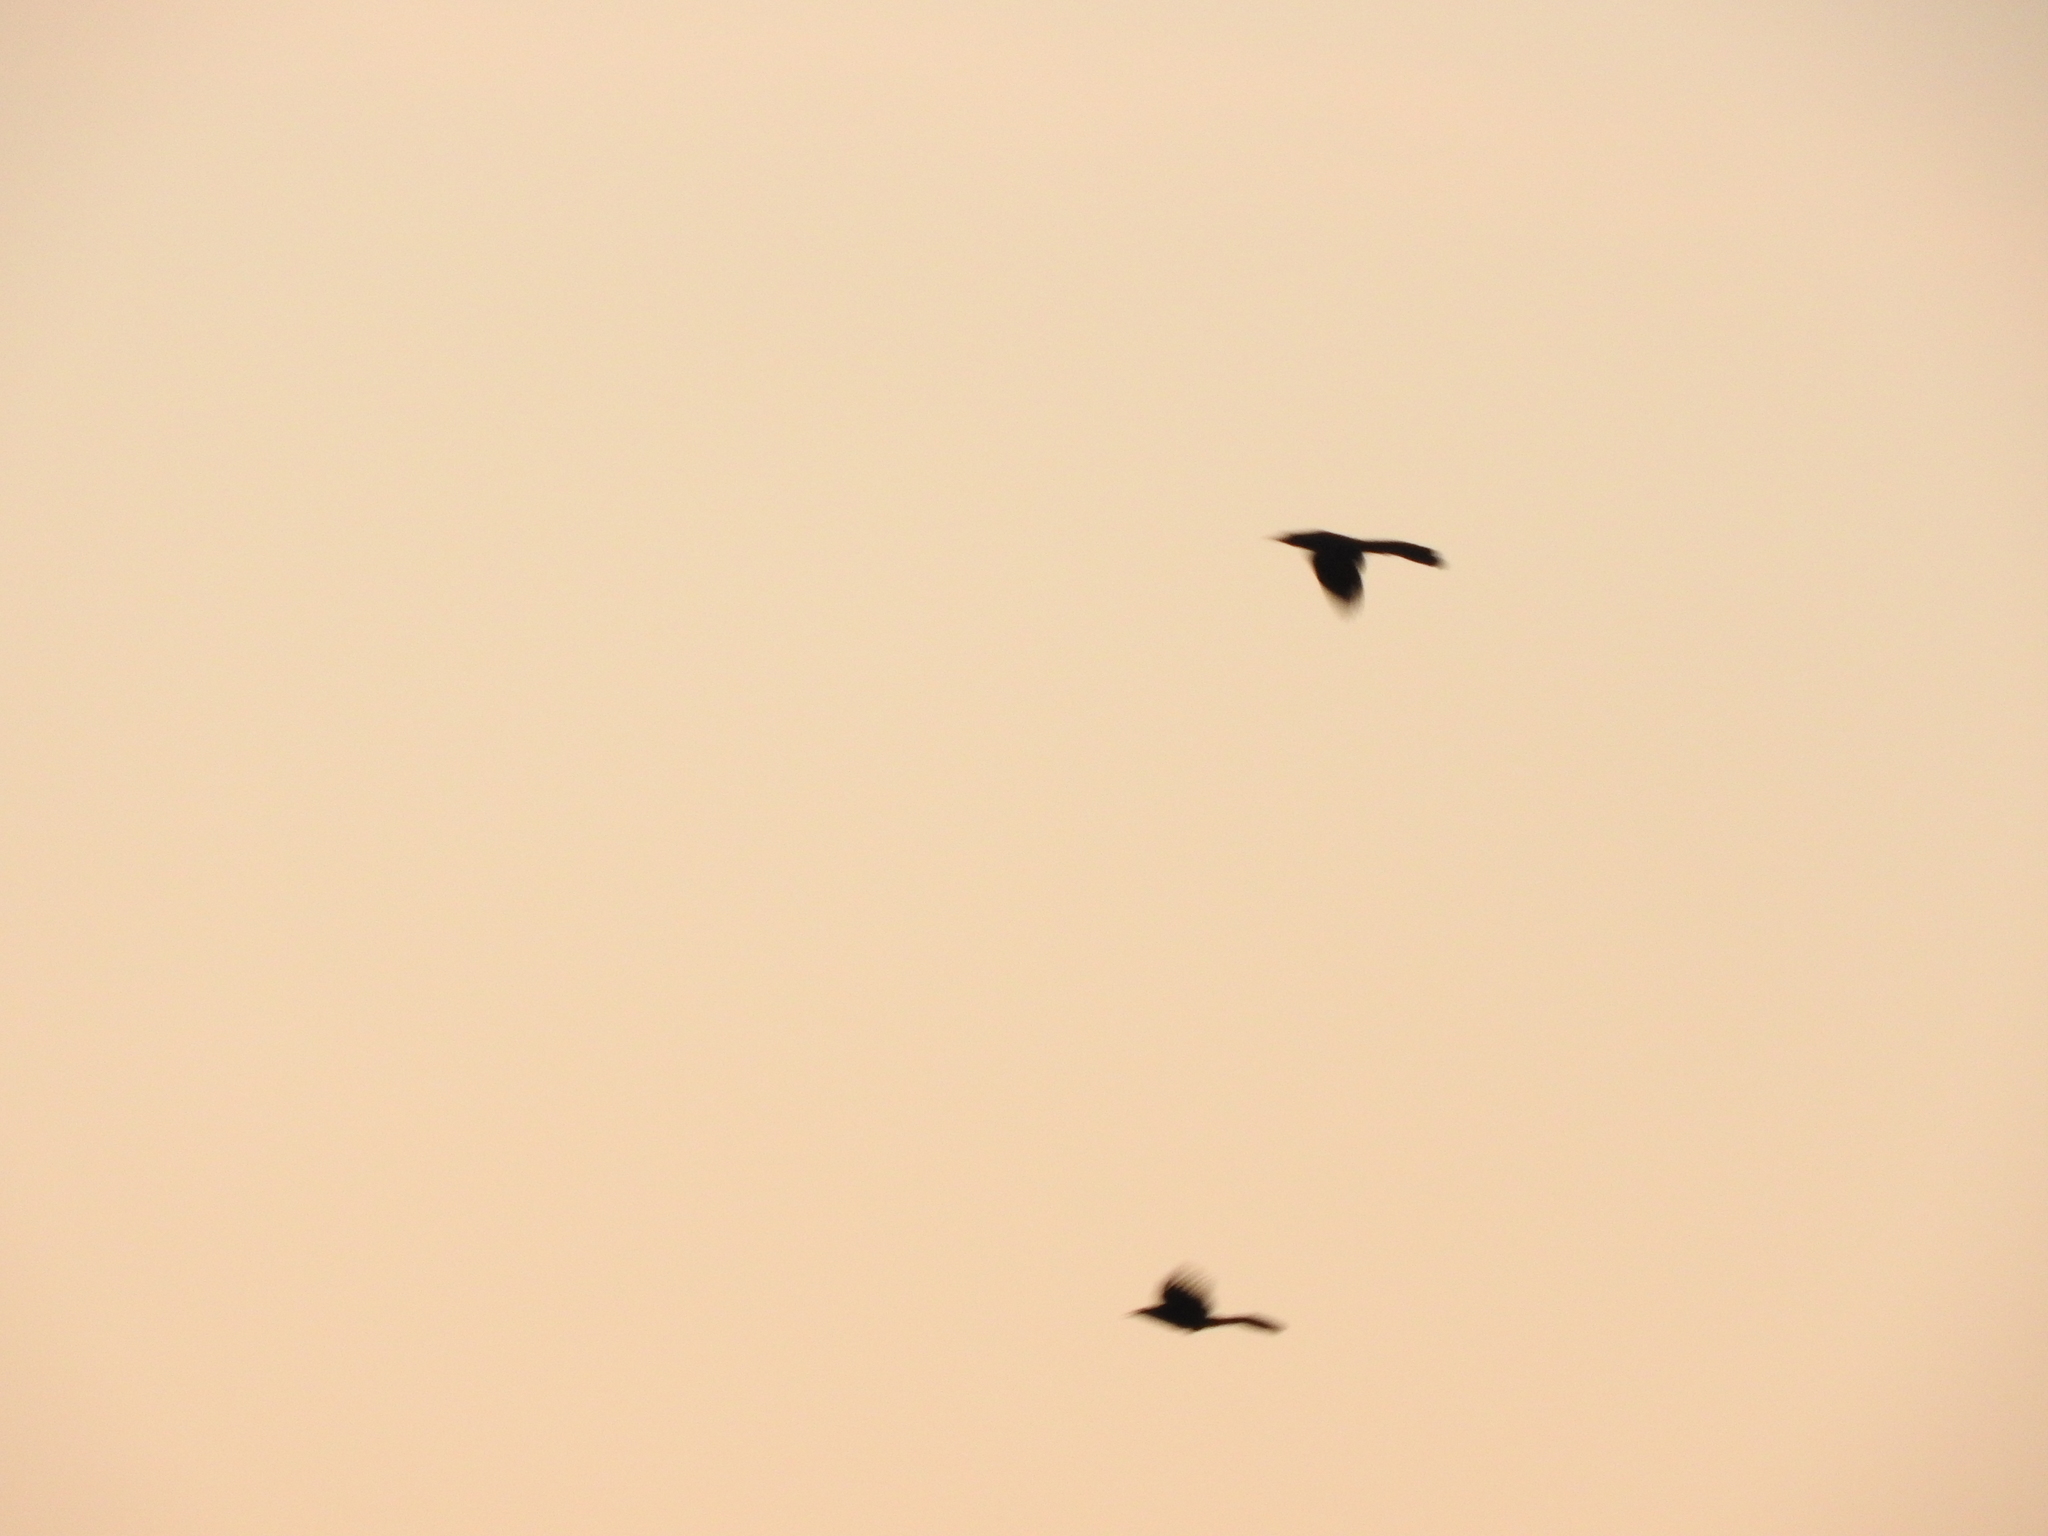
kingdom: Animalia
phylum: Chordata
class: Aves
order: Passeriformes
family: Icteridae
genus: Quiscalus
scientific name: Quiscalus mexicanus
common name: Great-tailed grackle
